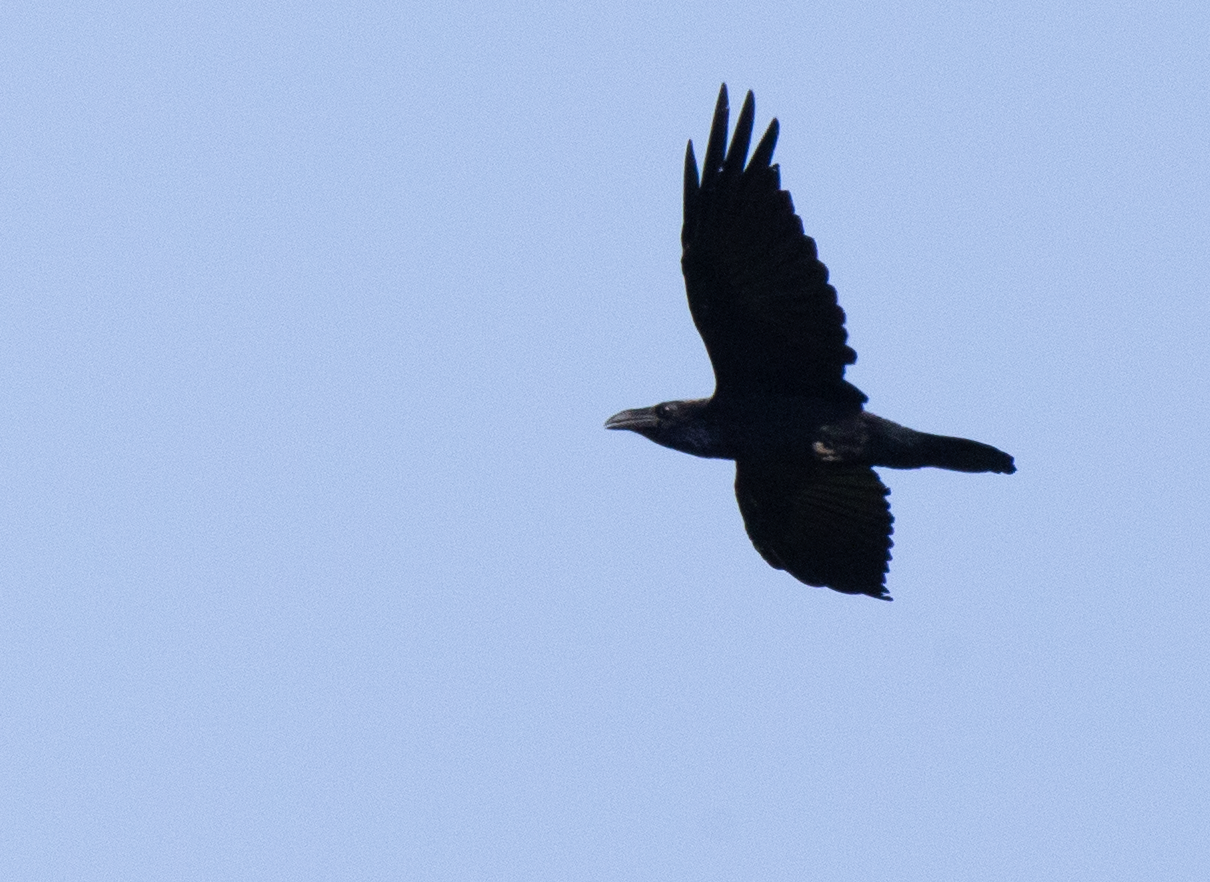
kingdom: Animalia
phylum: Chordata
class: Aves
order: Passeriformes
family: Corvidae
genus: Corvus
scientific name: Corvus corax
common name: Common raven
